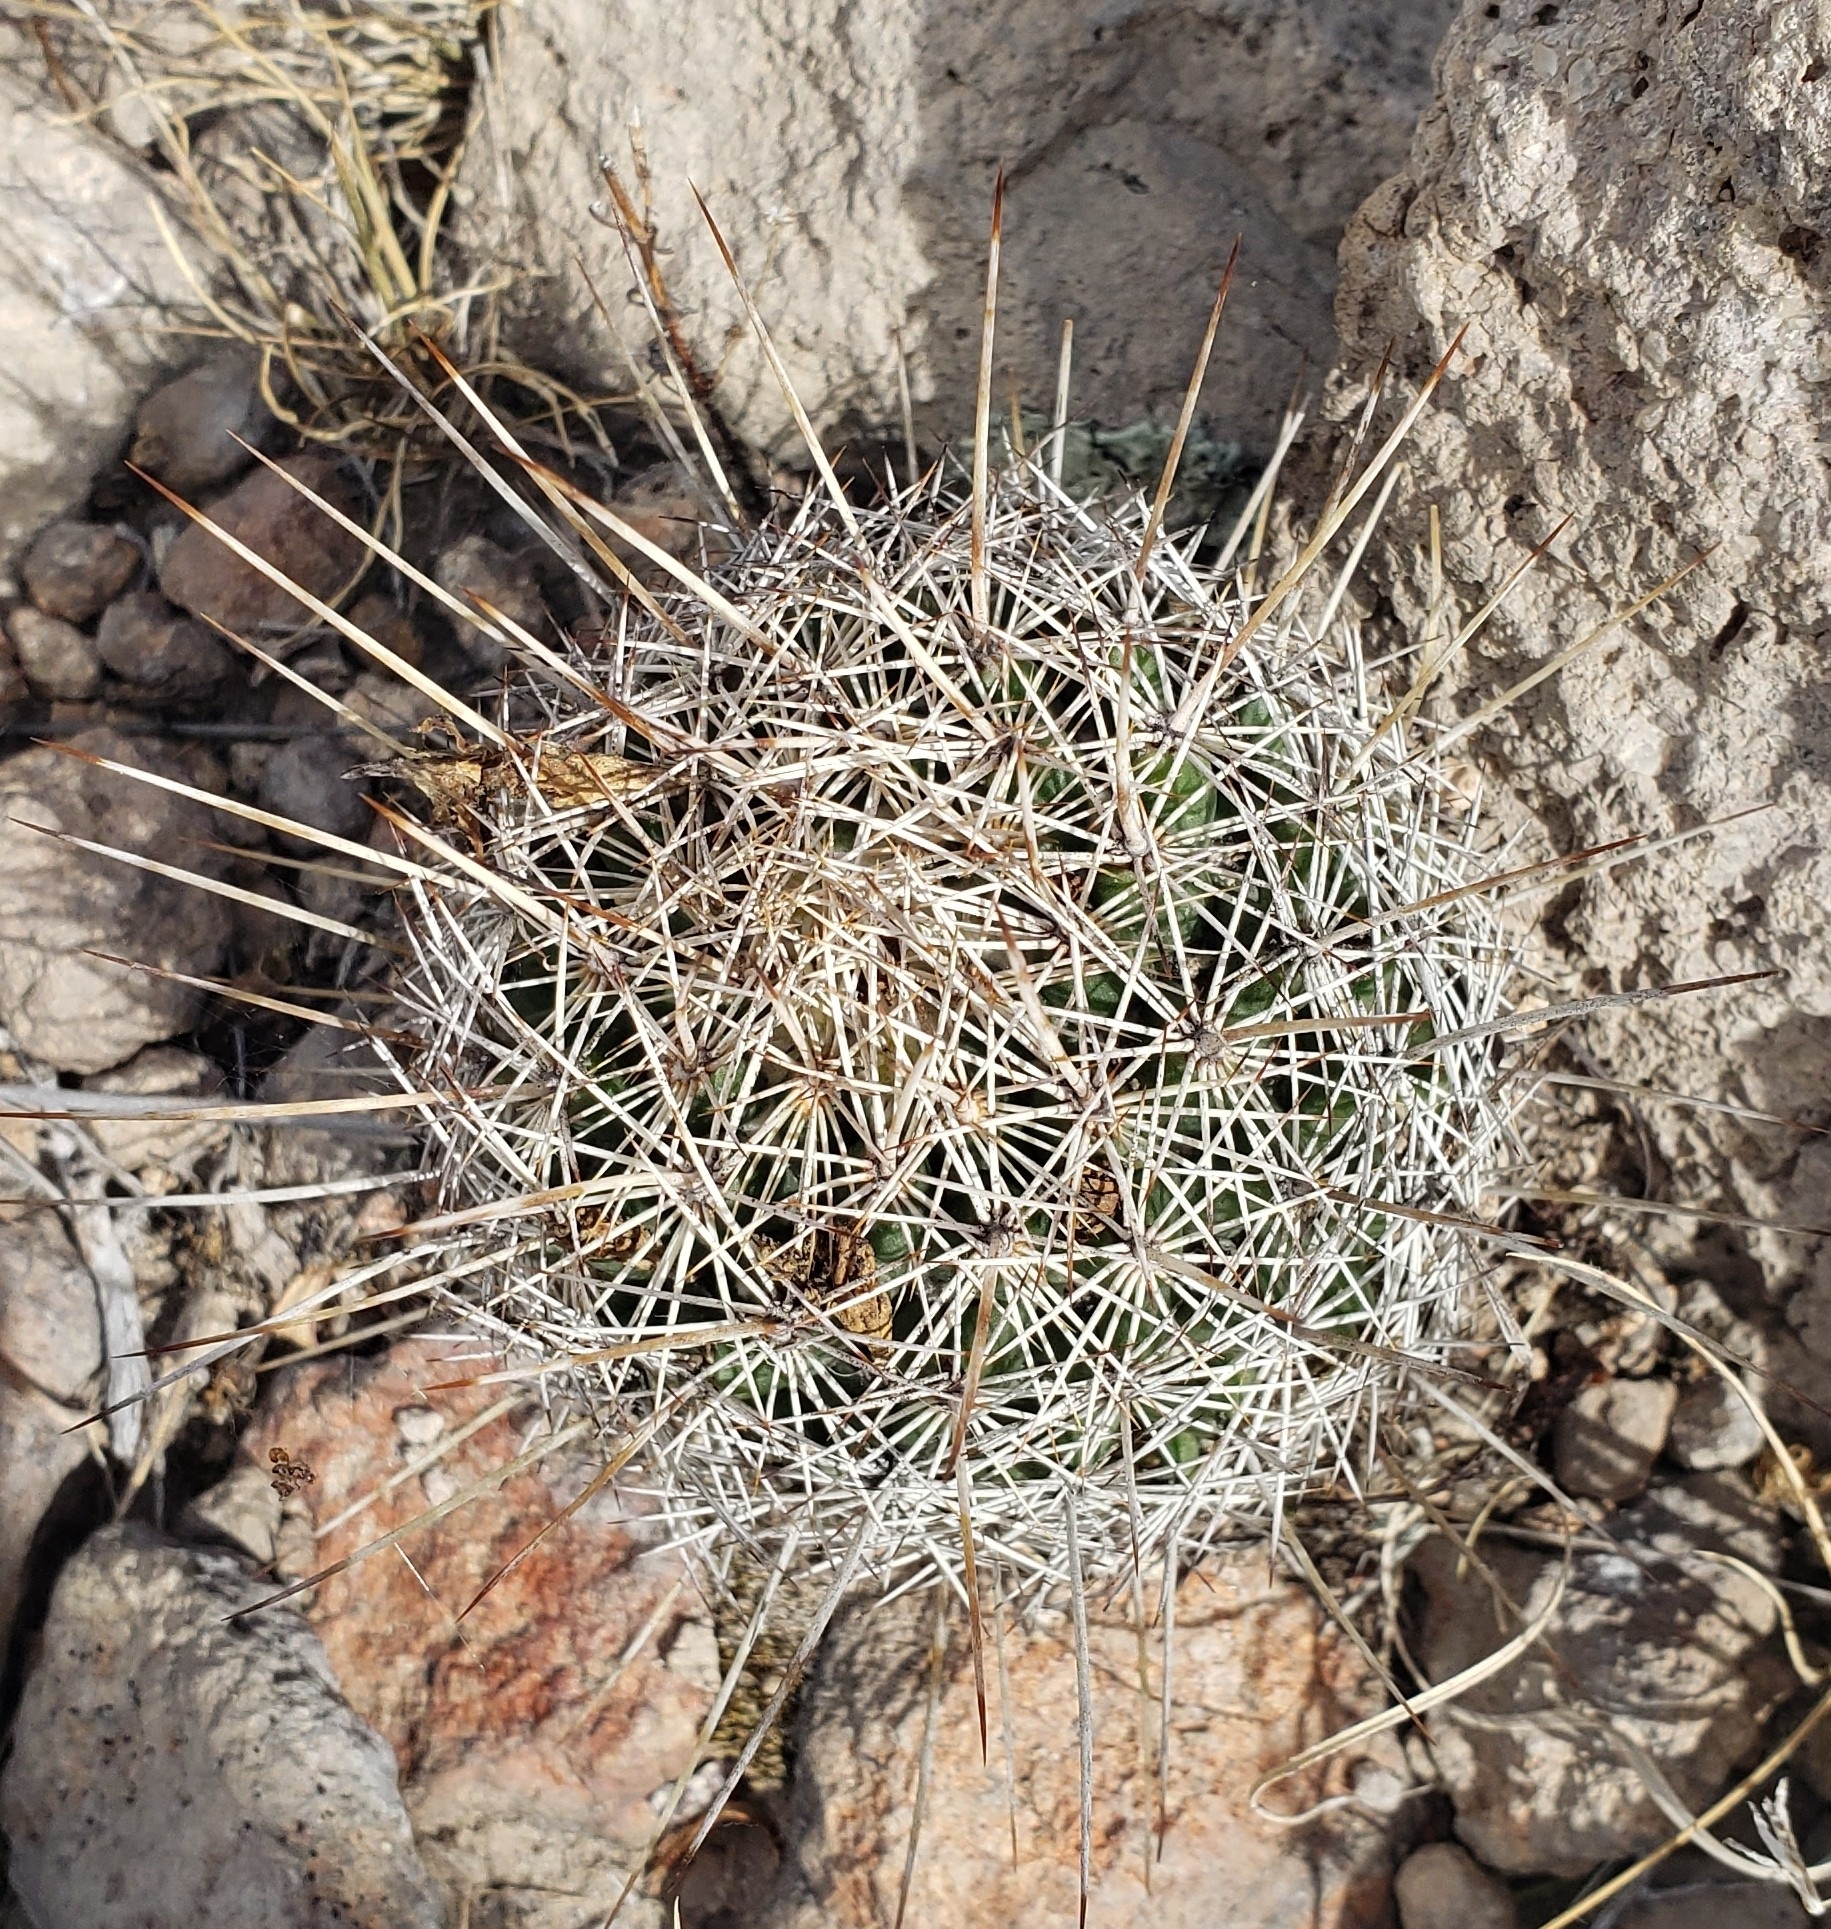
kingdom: Plantae
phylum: Tracheophyta
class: Magnoliopsida
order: Caryophyllales
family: Cactaceae
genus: Coryphantha
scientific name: Coryphantha clavata
